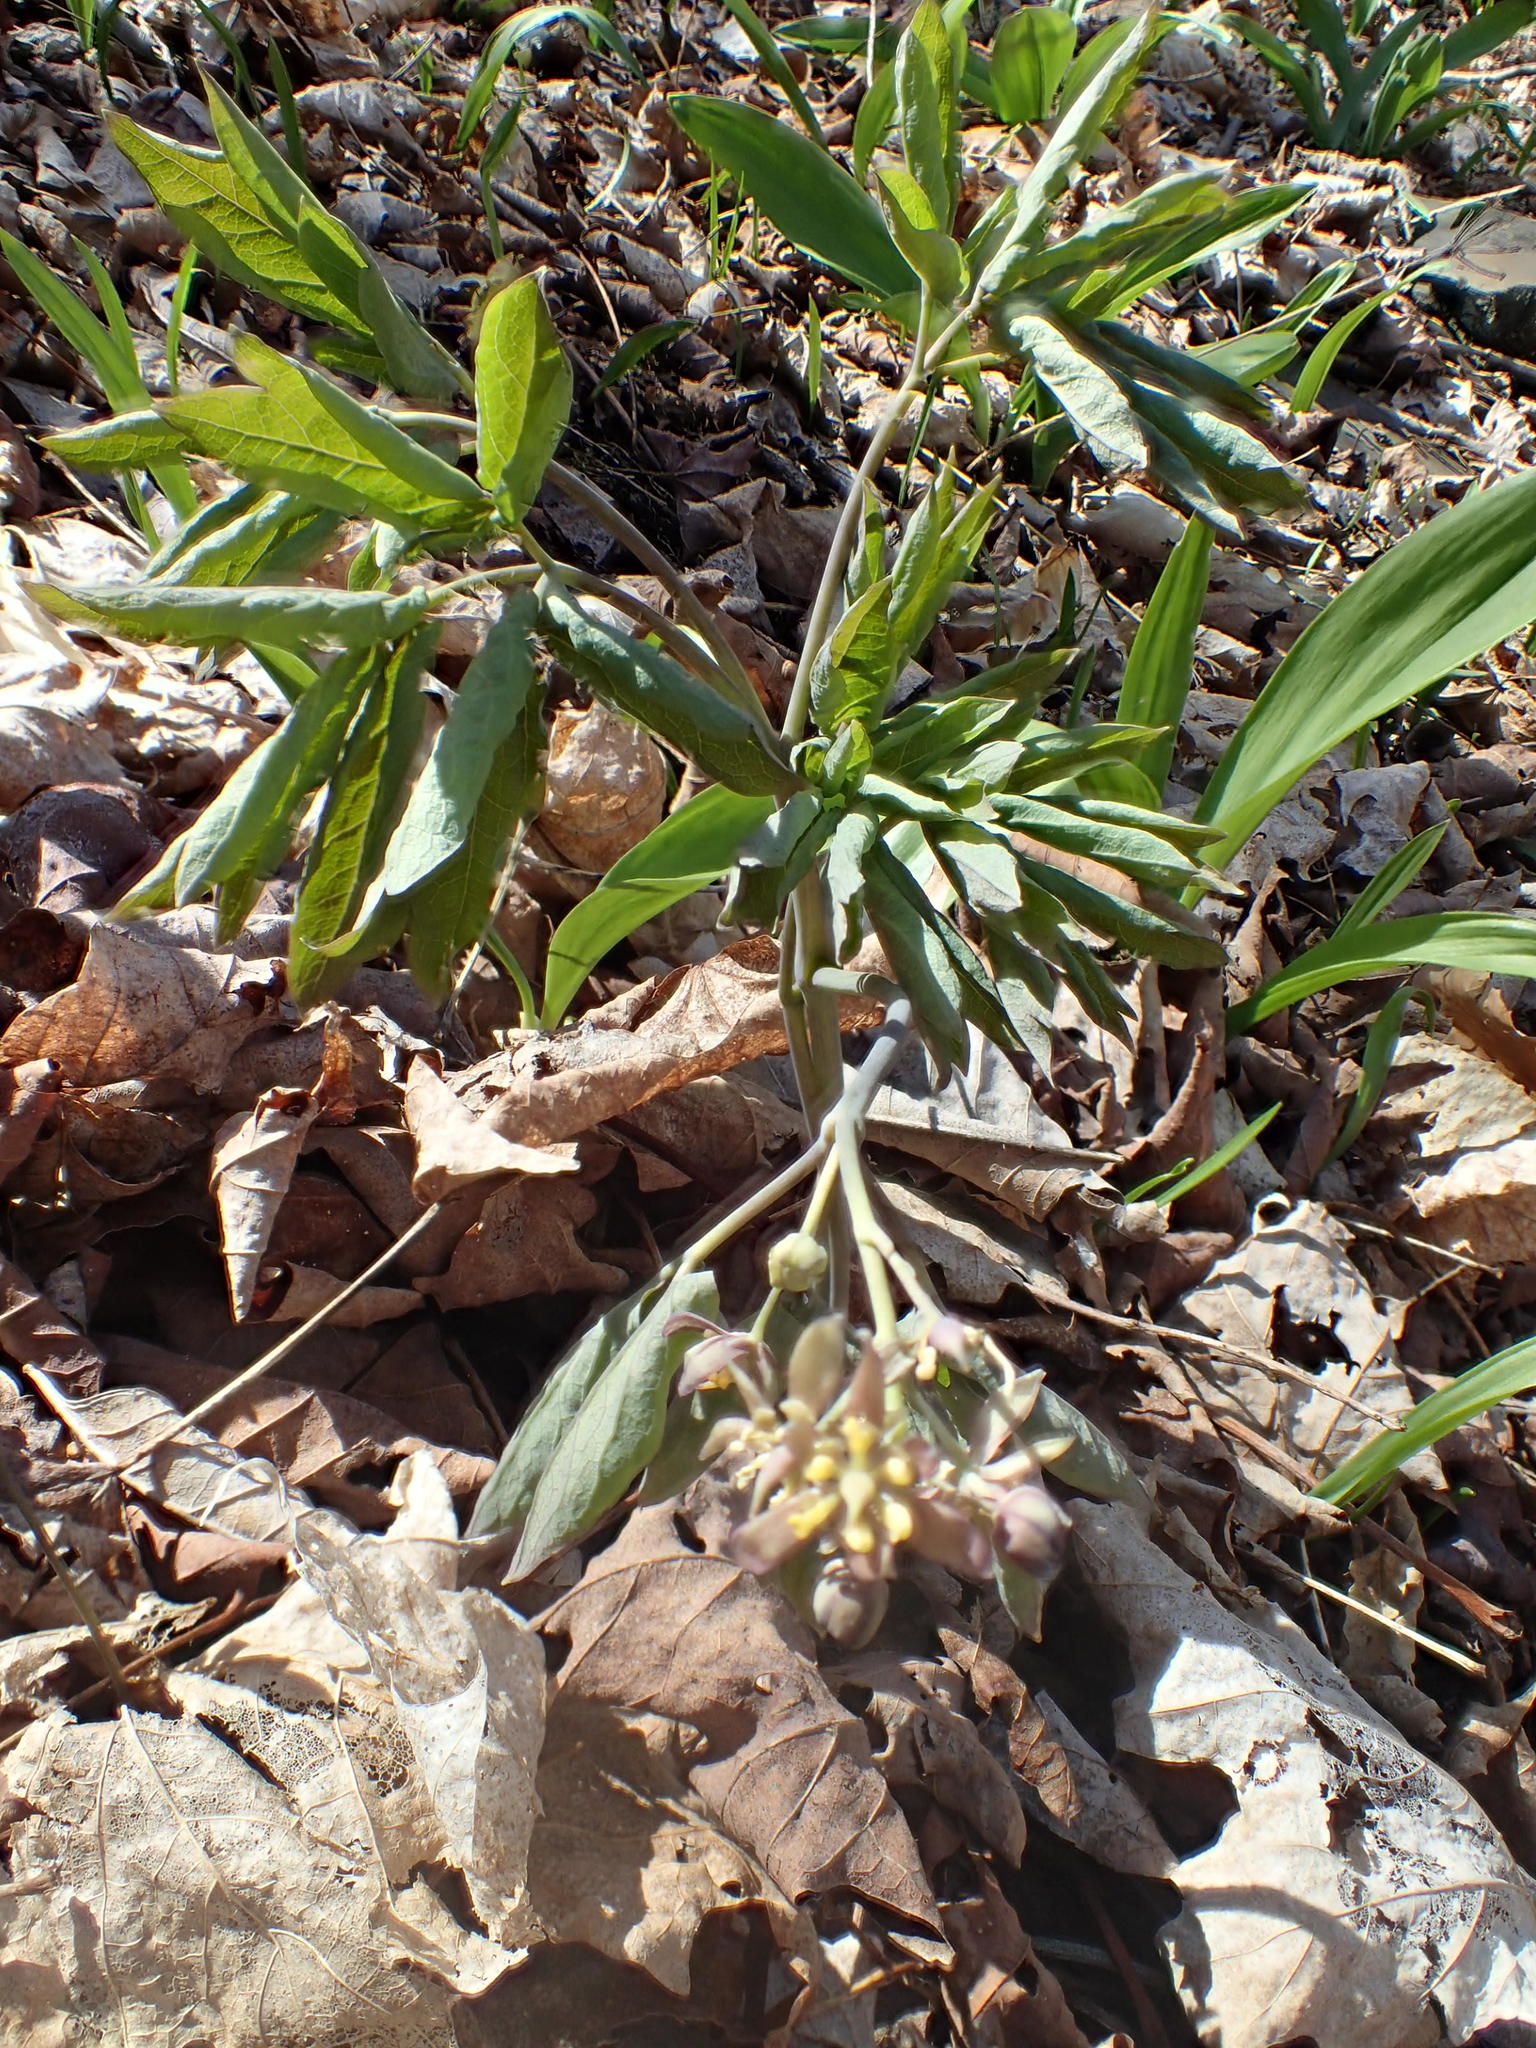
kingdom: Plantae
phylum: Tracheophyta
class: Magnoliopsida
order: Ranunculales
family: Berberidaceae
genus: Caulophyllum
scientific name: Caulophyllum giganteum
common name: Blue cohosh
